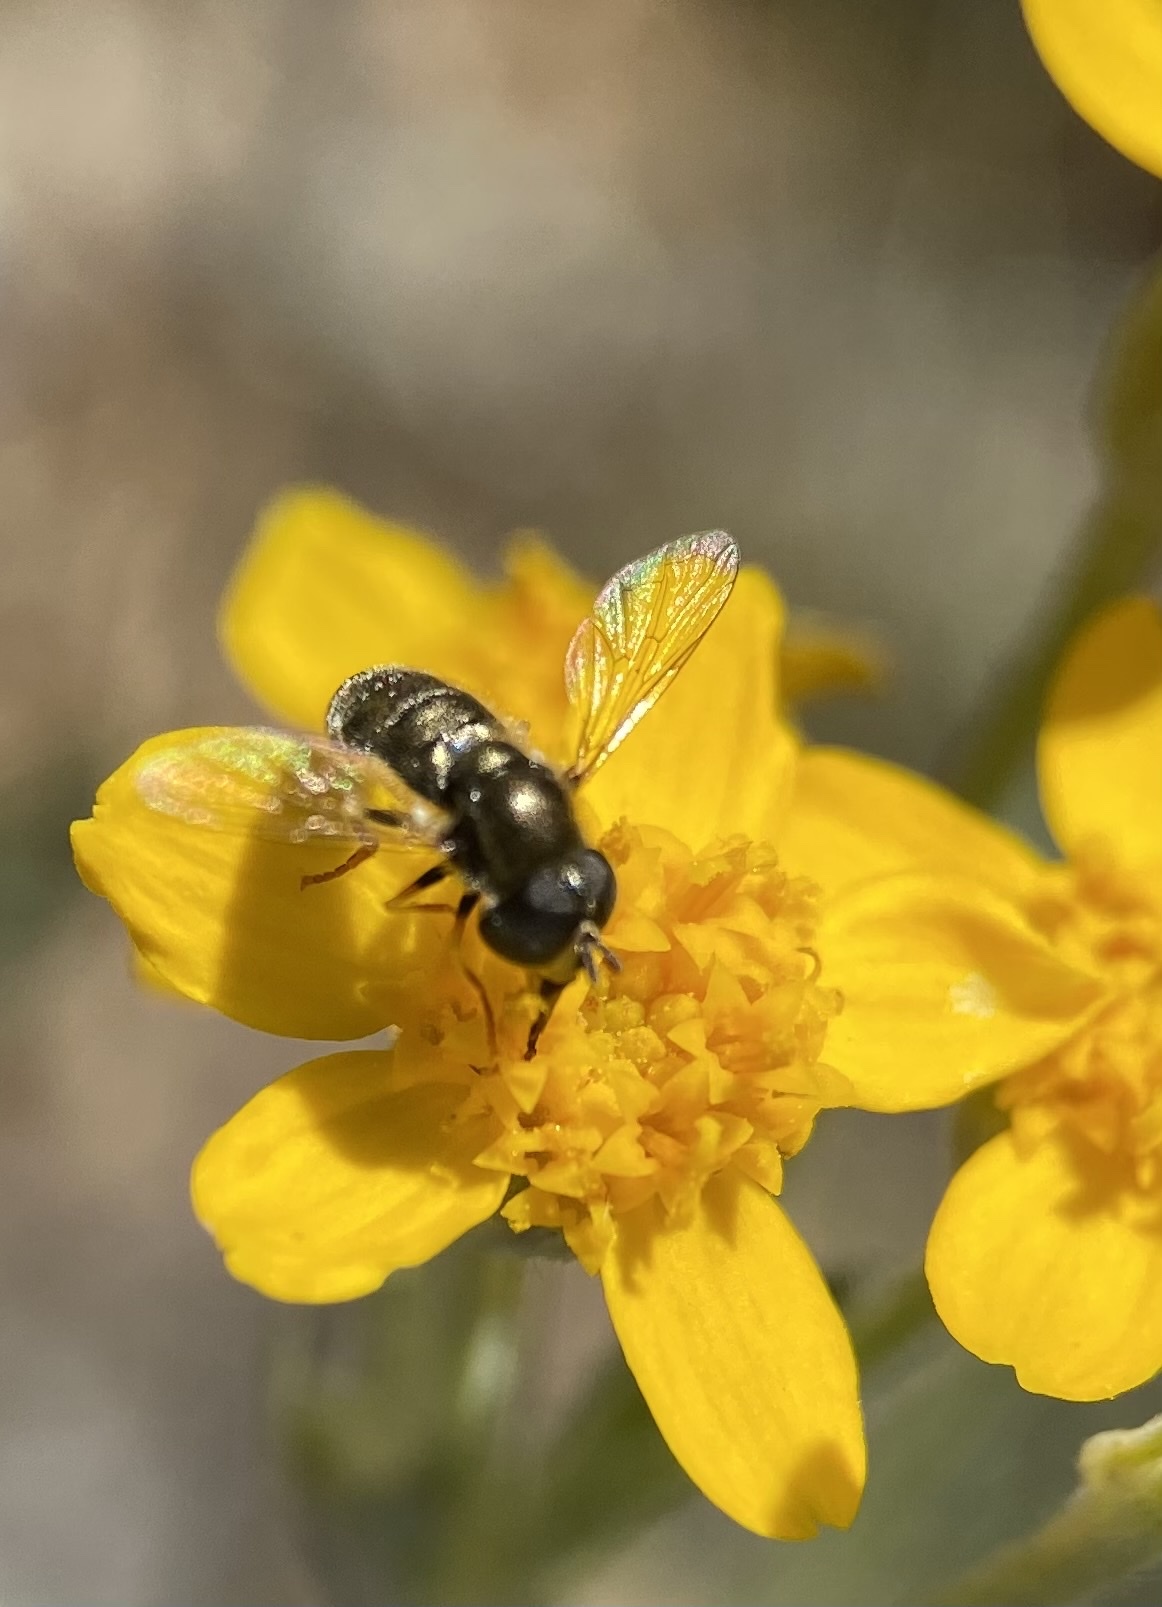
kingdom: Animalia
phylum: Arthropoda
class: Insecta
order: Diptera
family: Syrphidae
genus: Paragus
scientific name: Paragus haemorrhous
